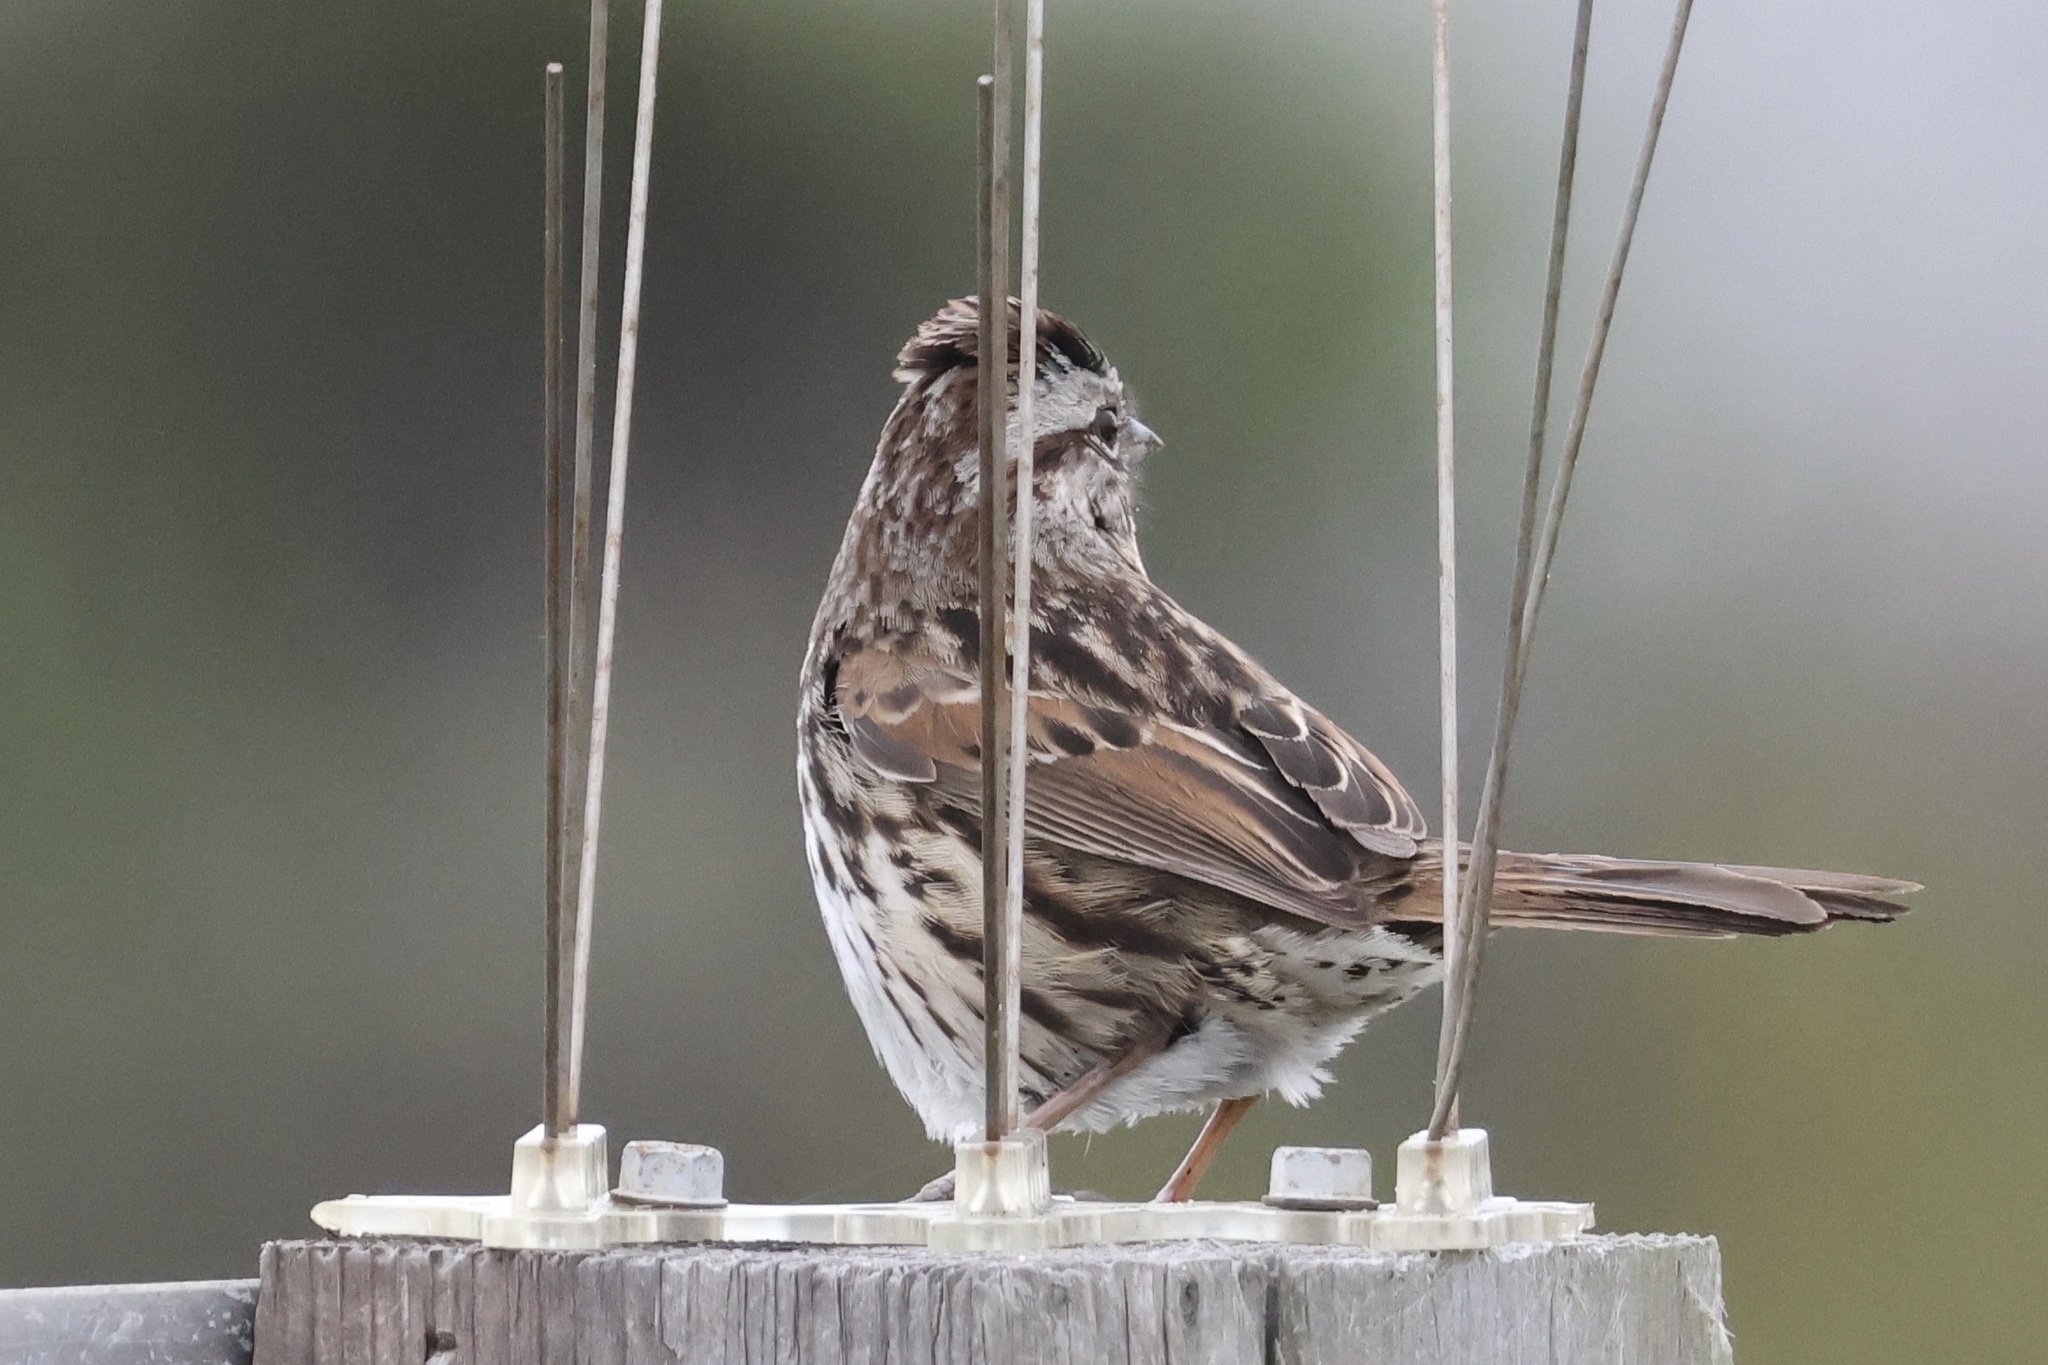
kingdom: Animalia
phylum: Chordata
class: Aves
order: Passeriformes
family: Passerellidae
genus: Melospiza
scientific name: Melospiza melodia
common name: Song sparrow
